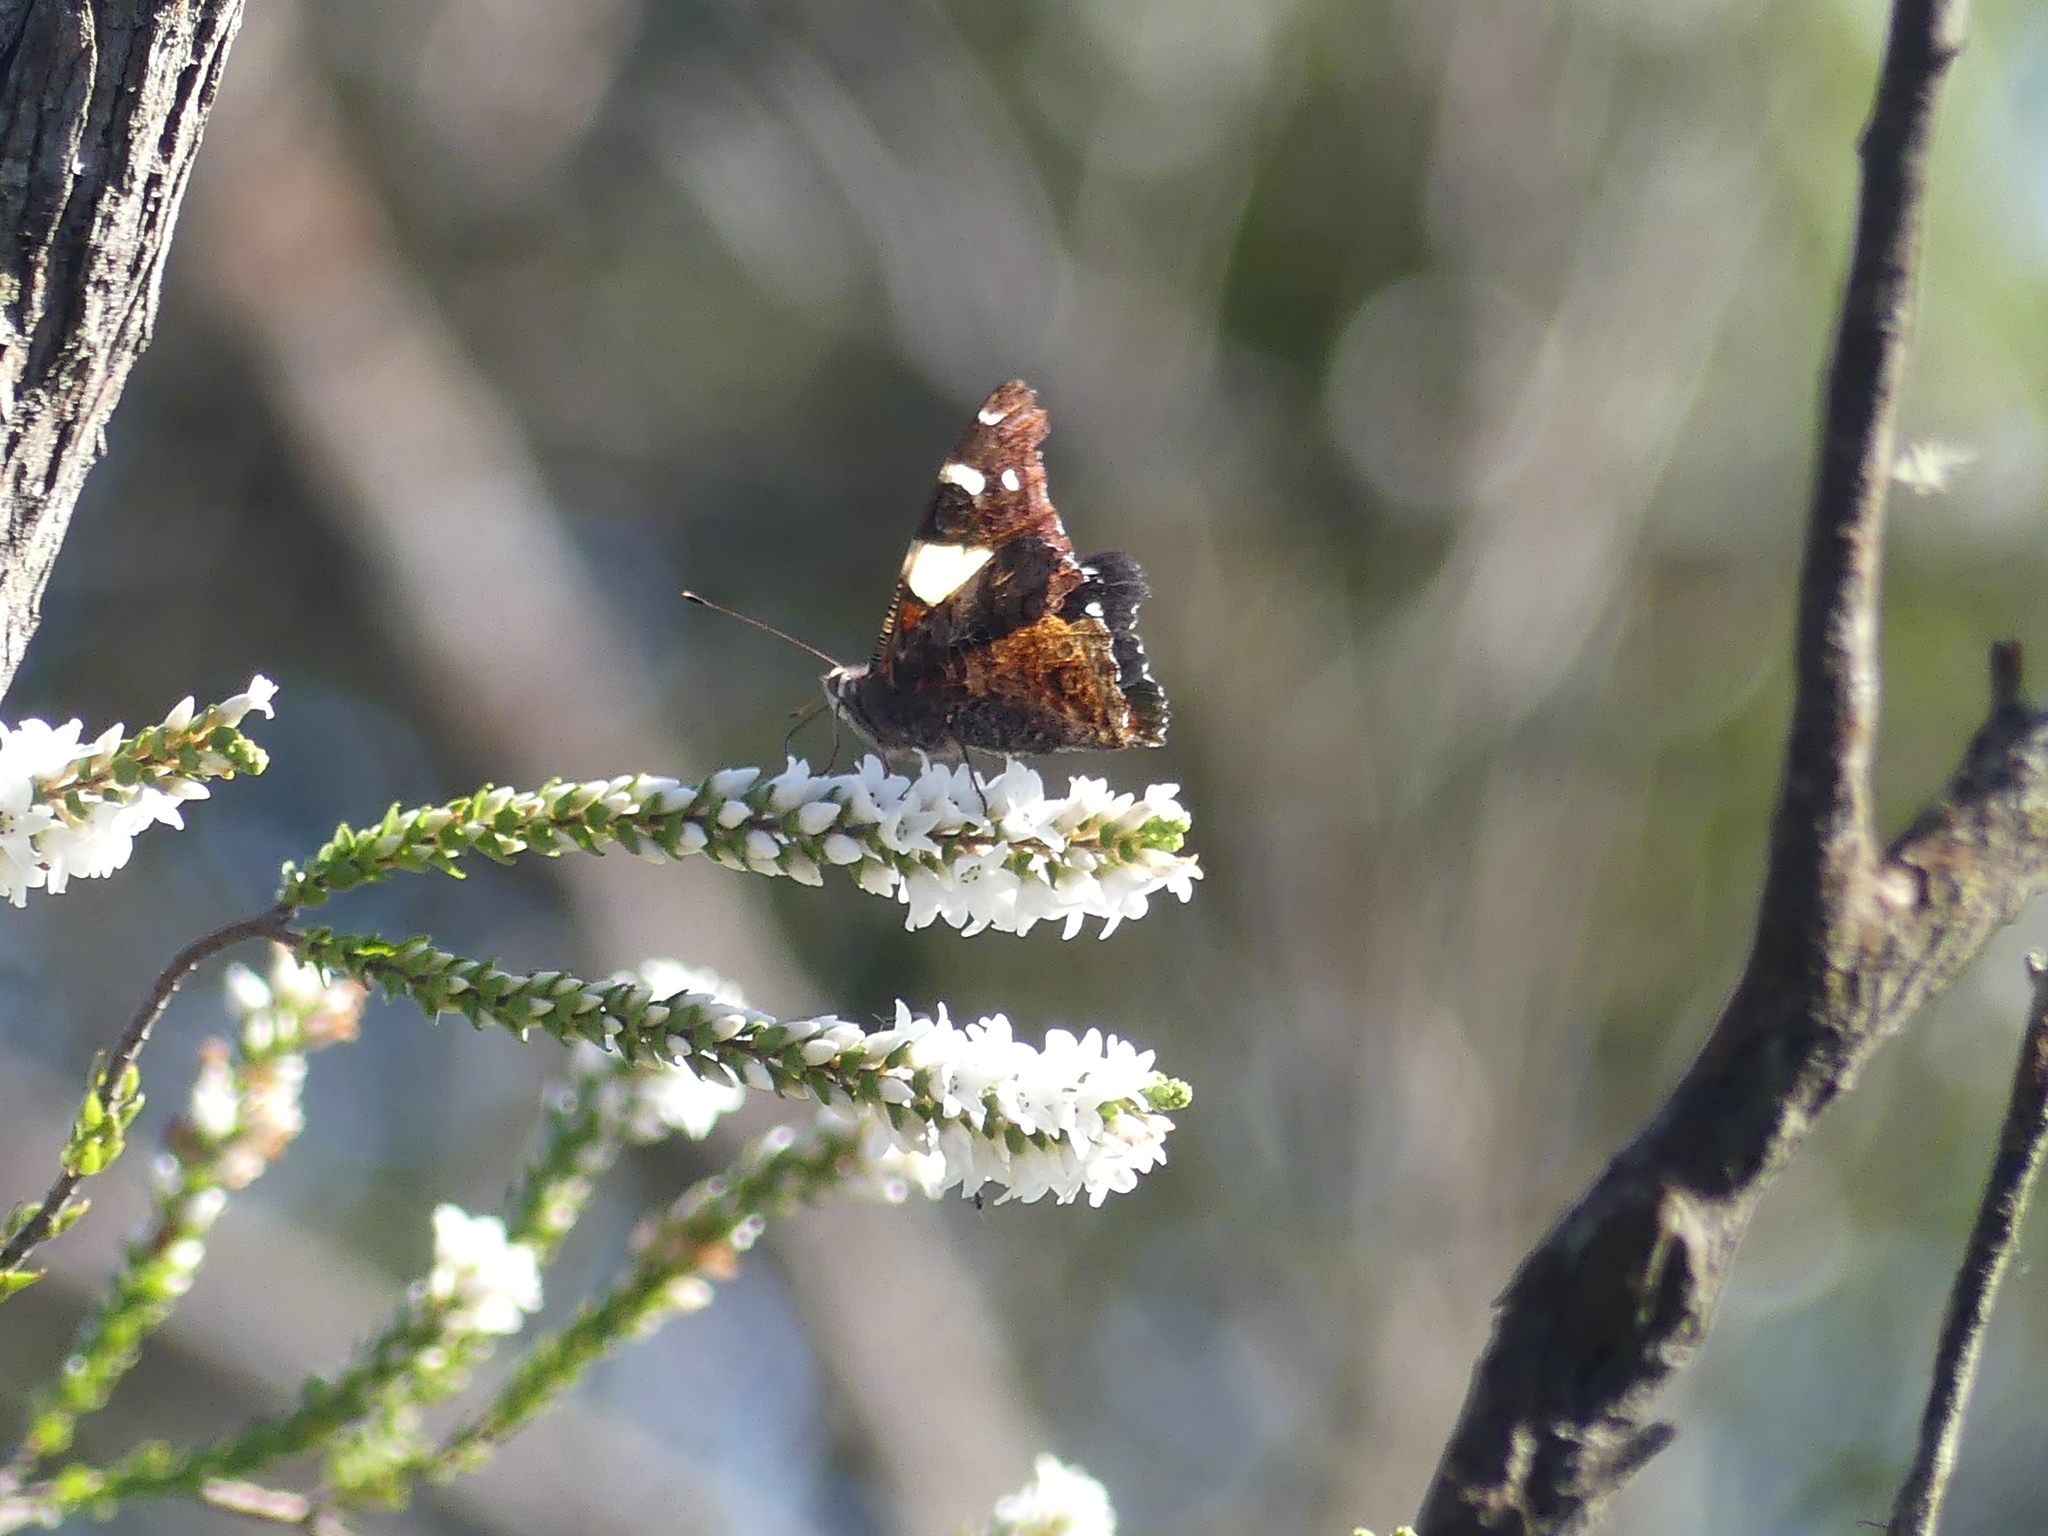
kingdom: Animalia
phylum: Arthropoda
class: Insecta
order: Lepidoptera
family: Nymphalidae
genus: Vanessa
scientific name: Vanessa itea
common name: Yellow admiral
